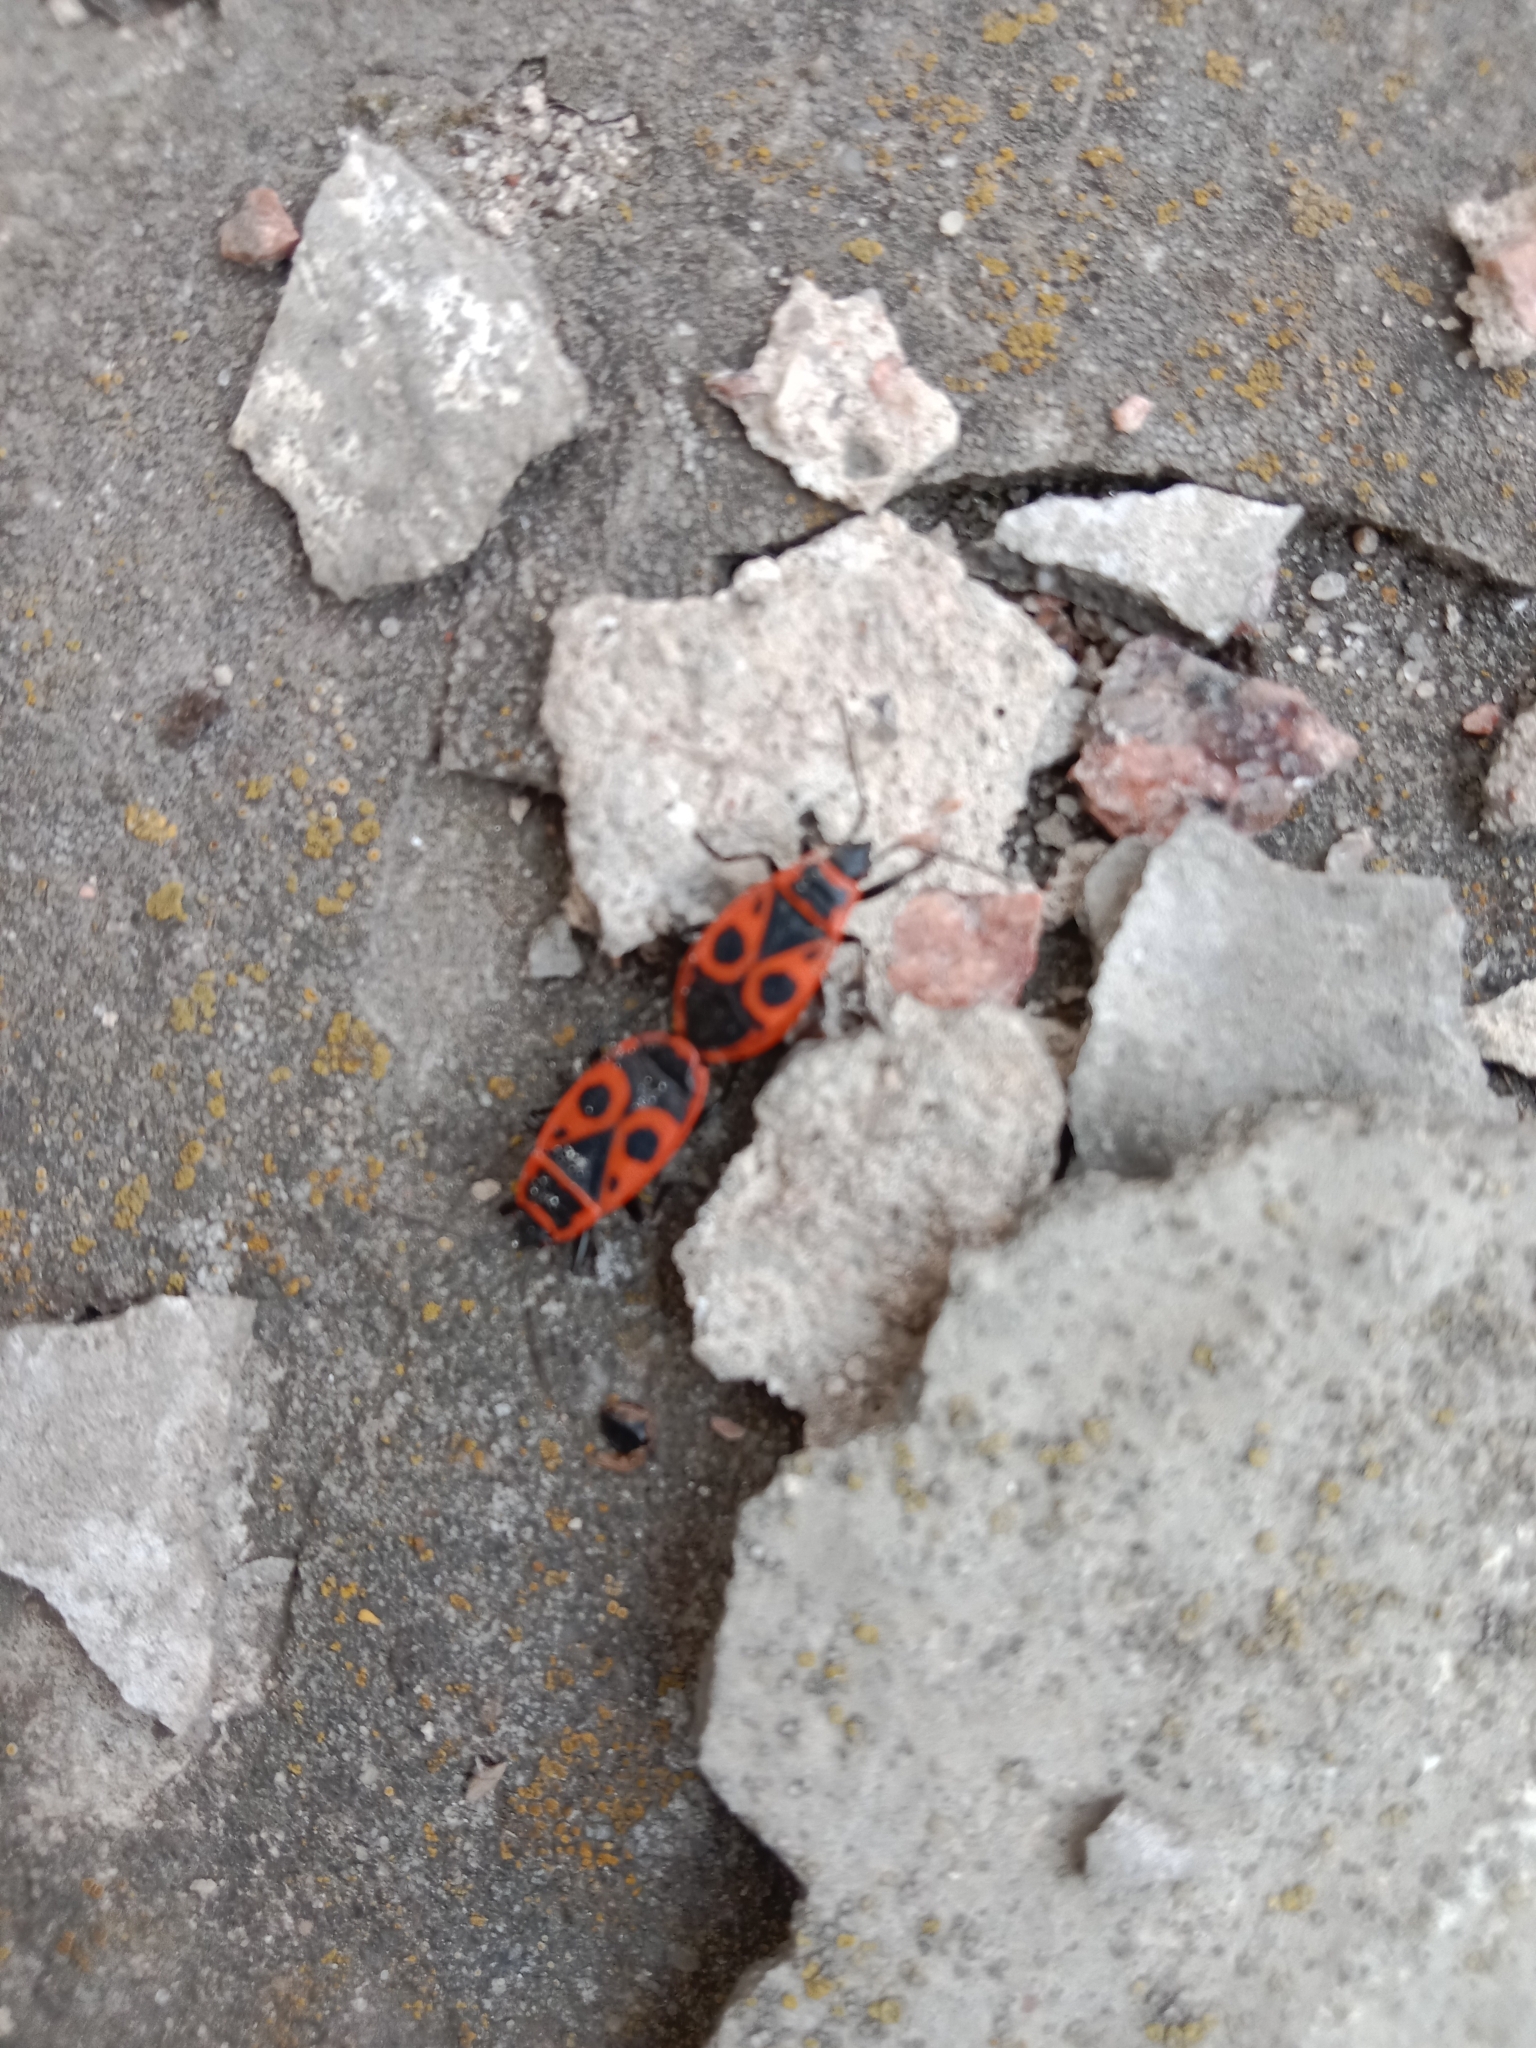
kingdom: Animalia
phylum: Arthropoda
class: Insecta
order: Hemiptera
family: Pyrrhocoridae
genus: Pyrrhocoris
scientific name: Pyrrhocoris apterus
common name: Firebug
